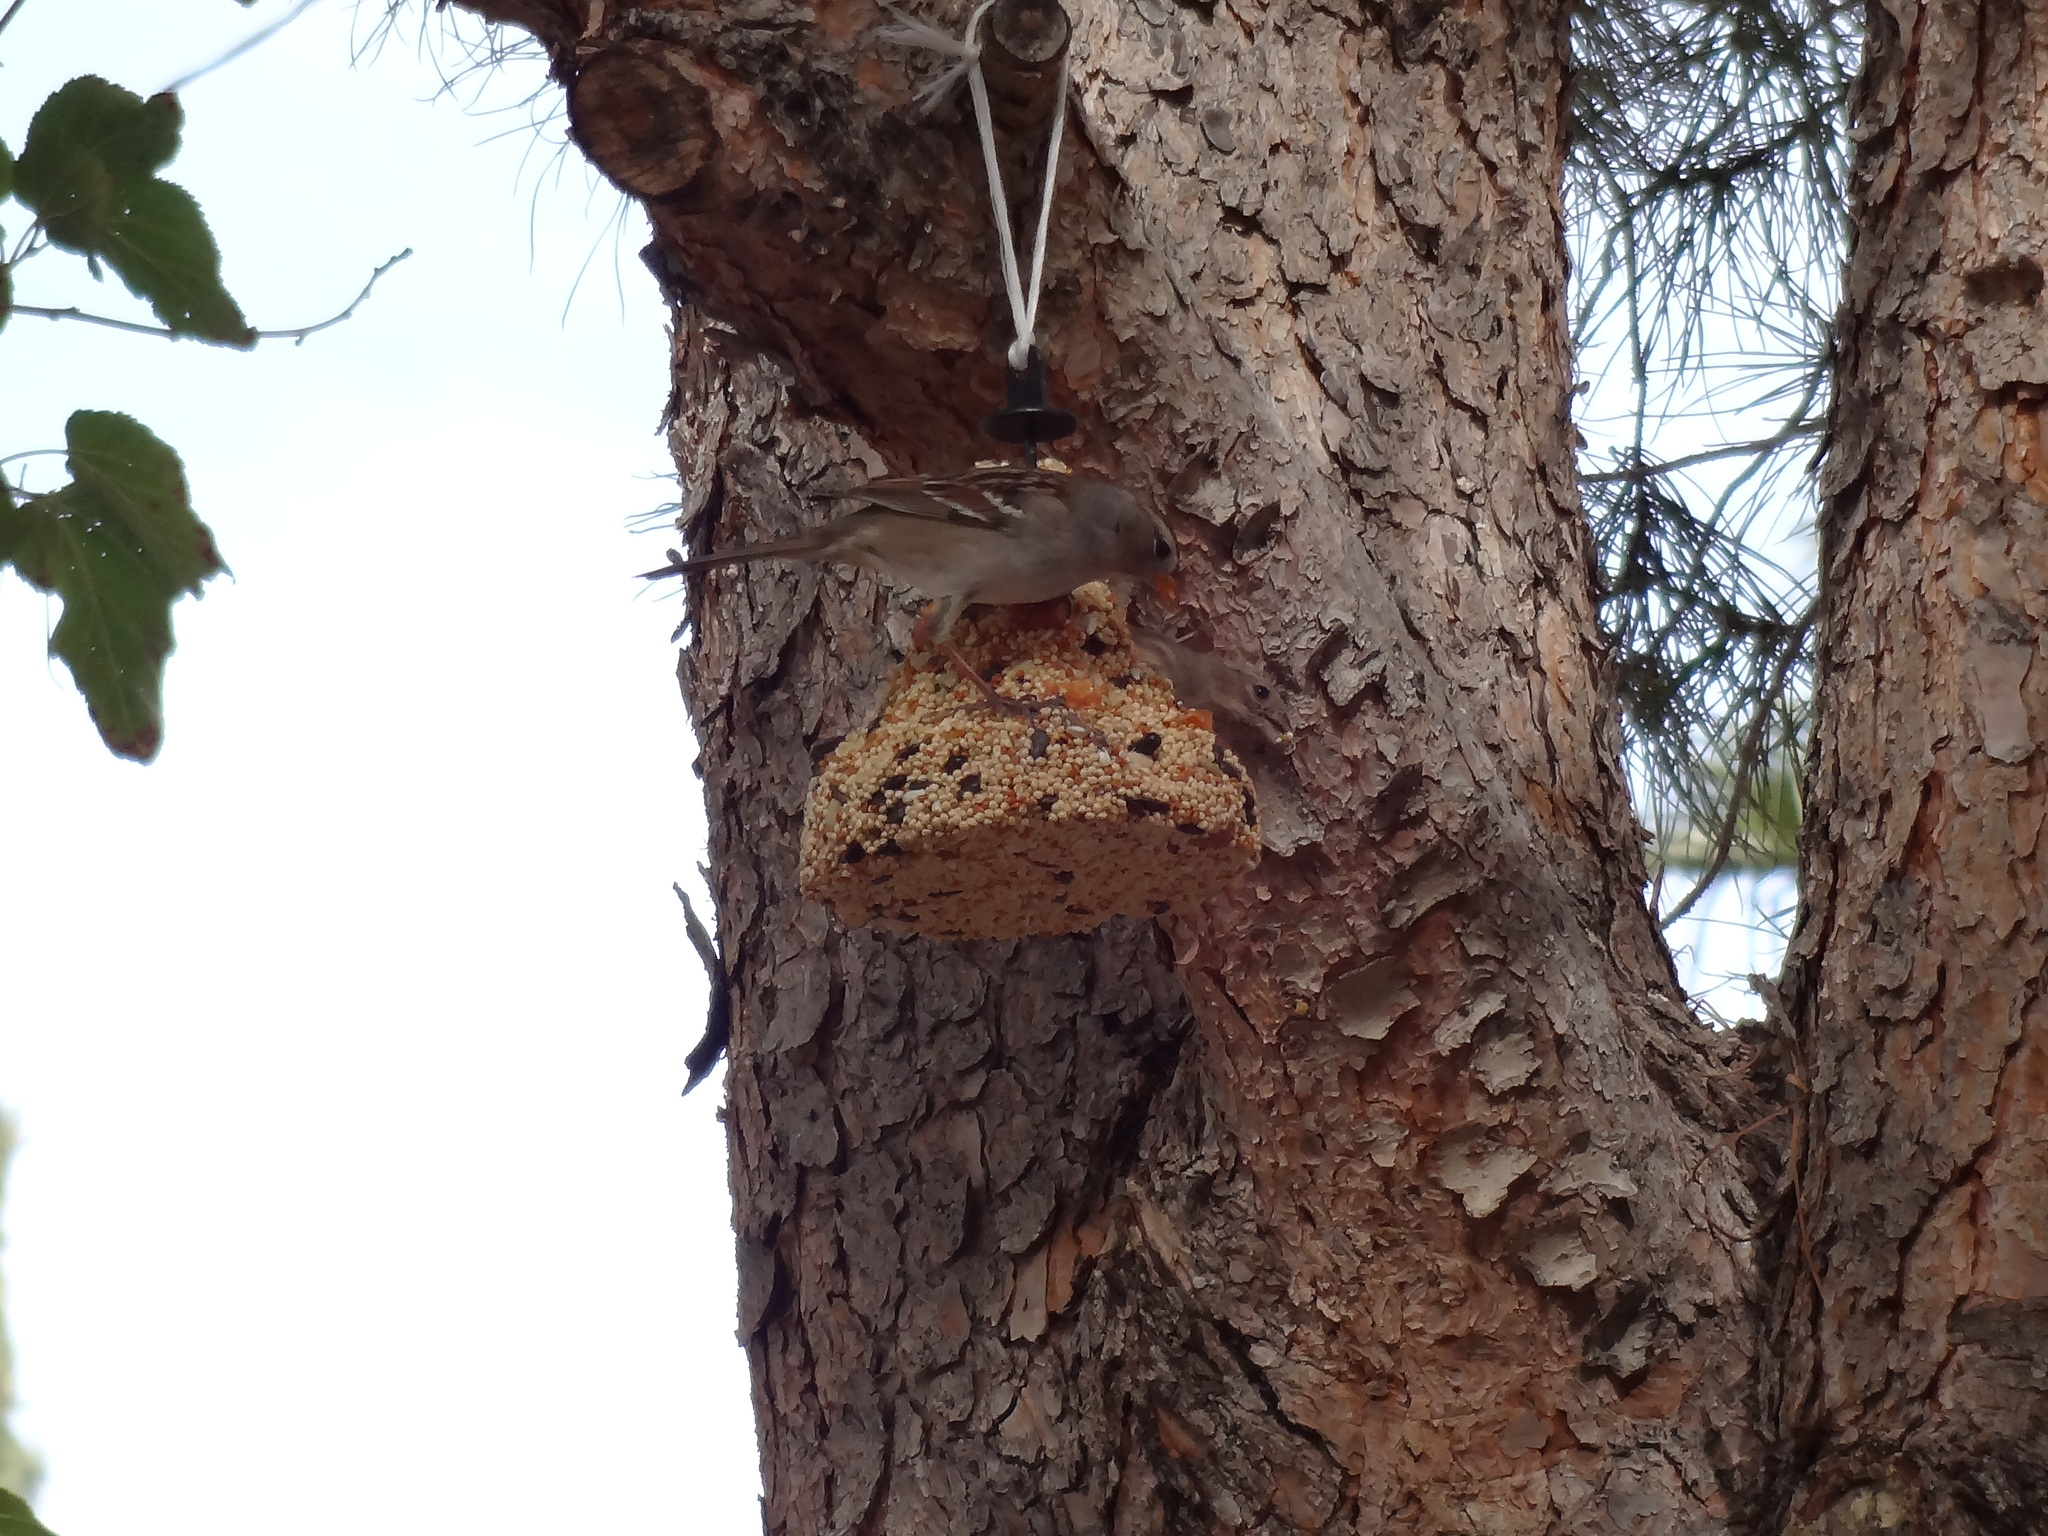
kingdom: Animalia
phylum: Chordata
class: Aves
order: Passeriformes
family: Passerellidae
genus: Zonotrichia
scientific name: Zonotrichia leucophrys
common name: White-crowned sparrow
